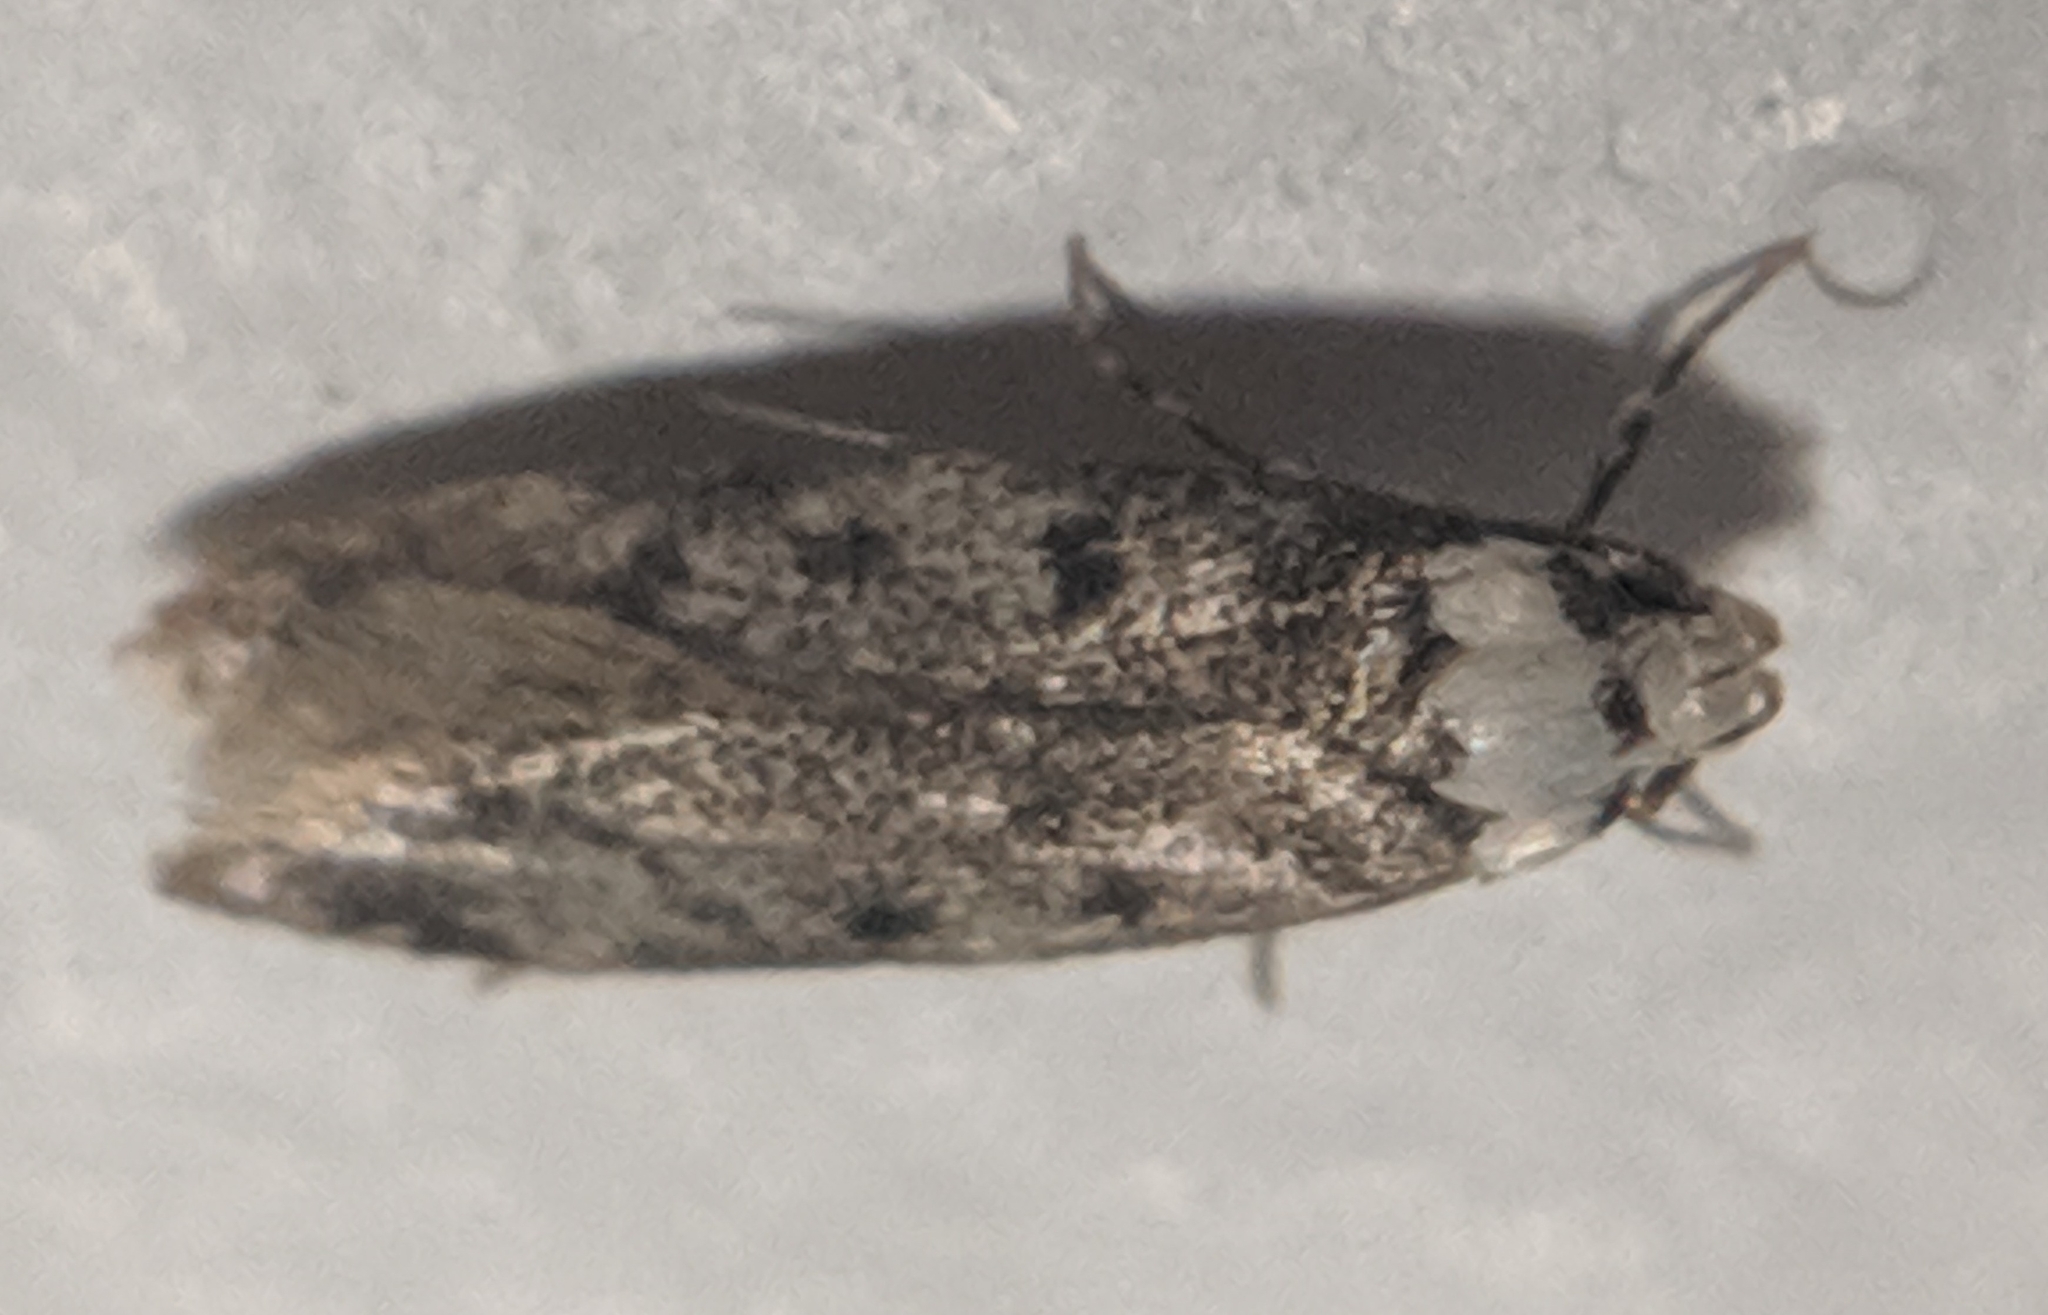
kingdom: Animalia
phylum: Arthropoda
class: Insecta
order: Lepidoptera
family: Oecophoridae
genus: Endrosis
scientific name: Endrosis sarcitrella
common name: White-shouldered house moth
